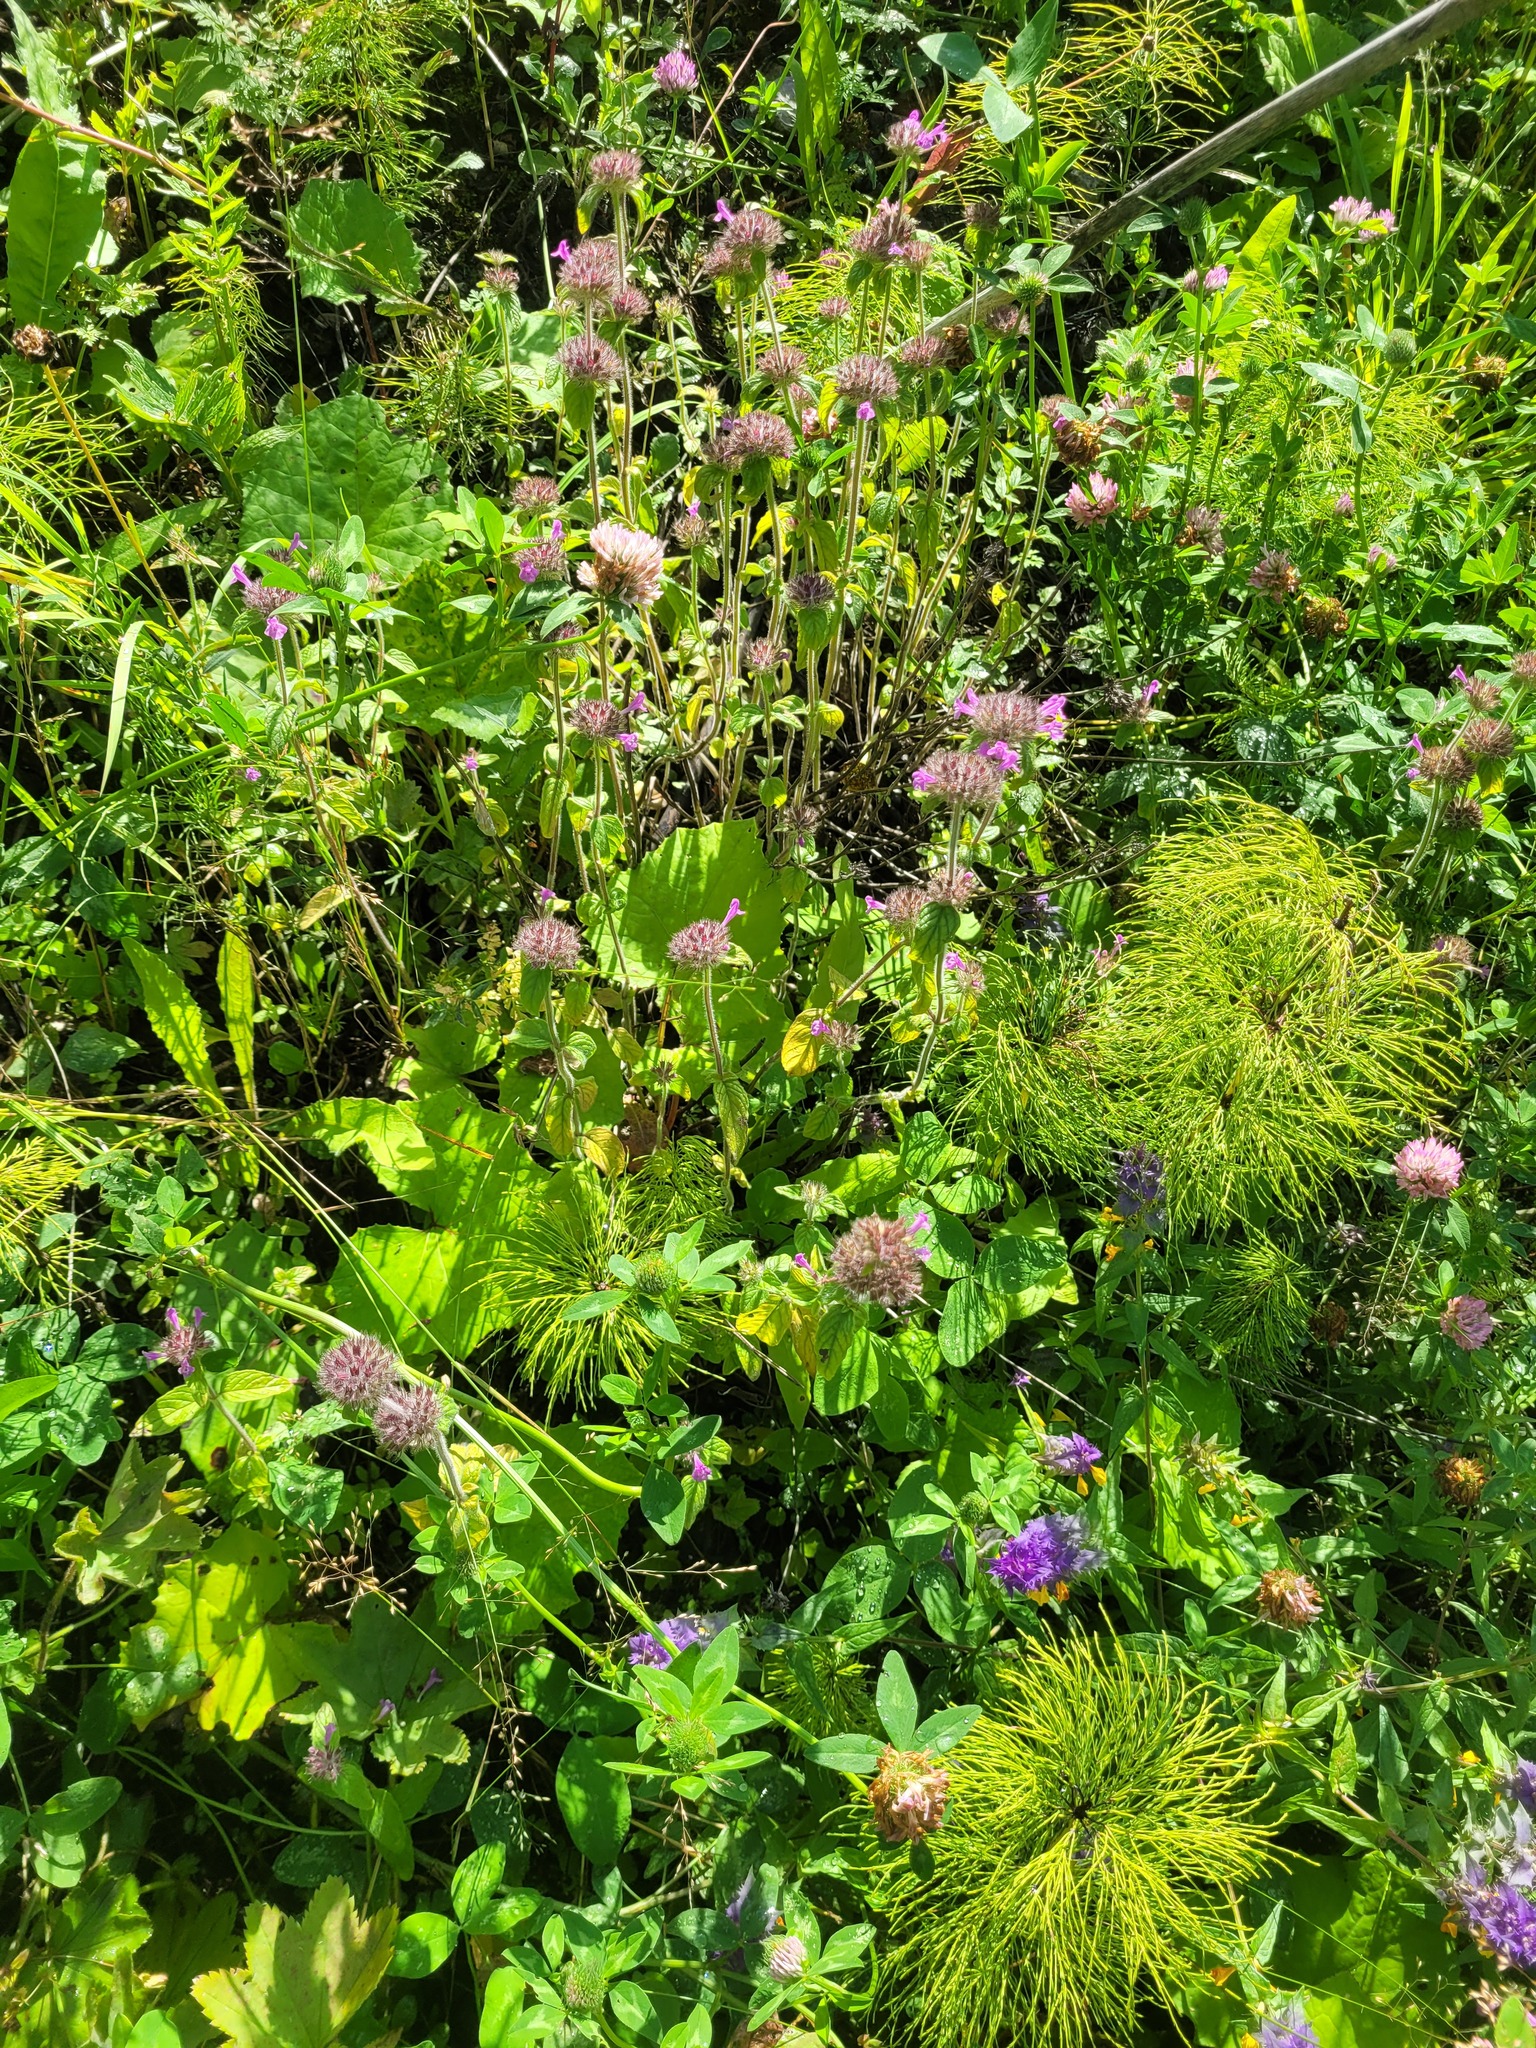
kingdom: Plantae
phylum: Tracheophyta
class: Magnoliopsida
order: Lamiales
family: Lamiaceae
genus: Clinopodium
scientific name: Clinopodium vulgare
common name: Wild basil
